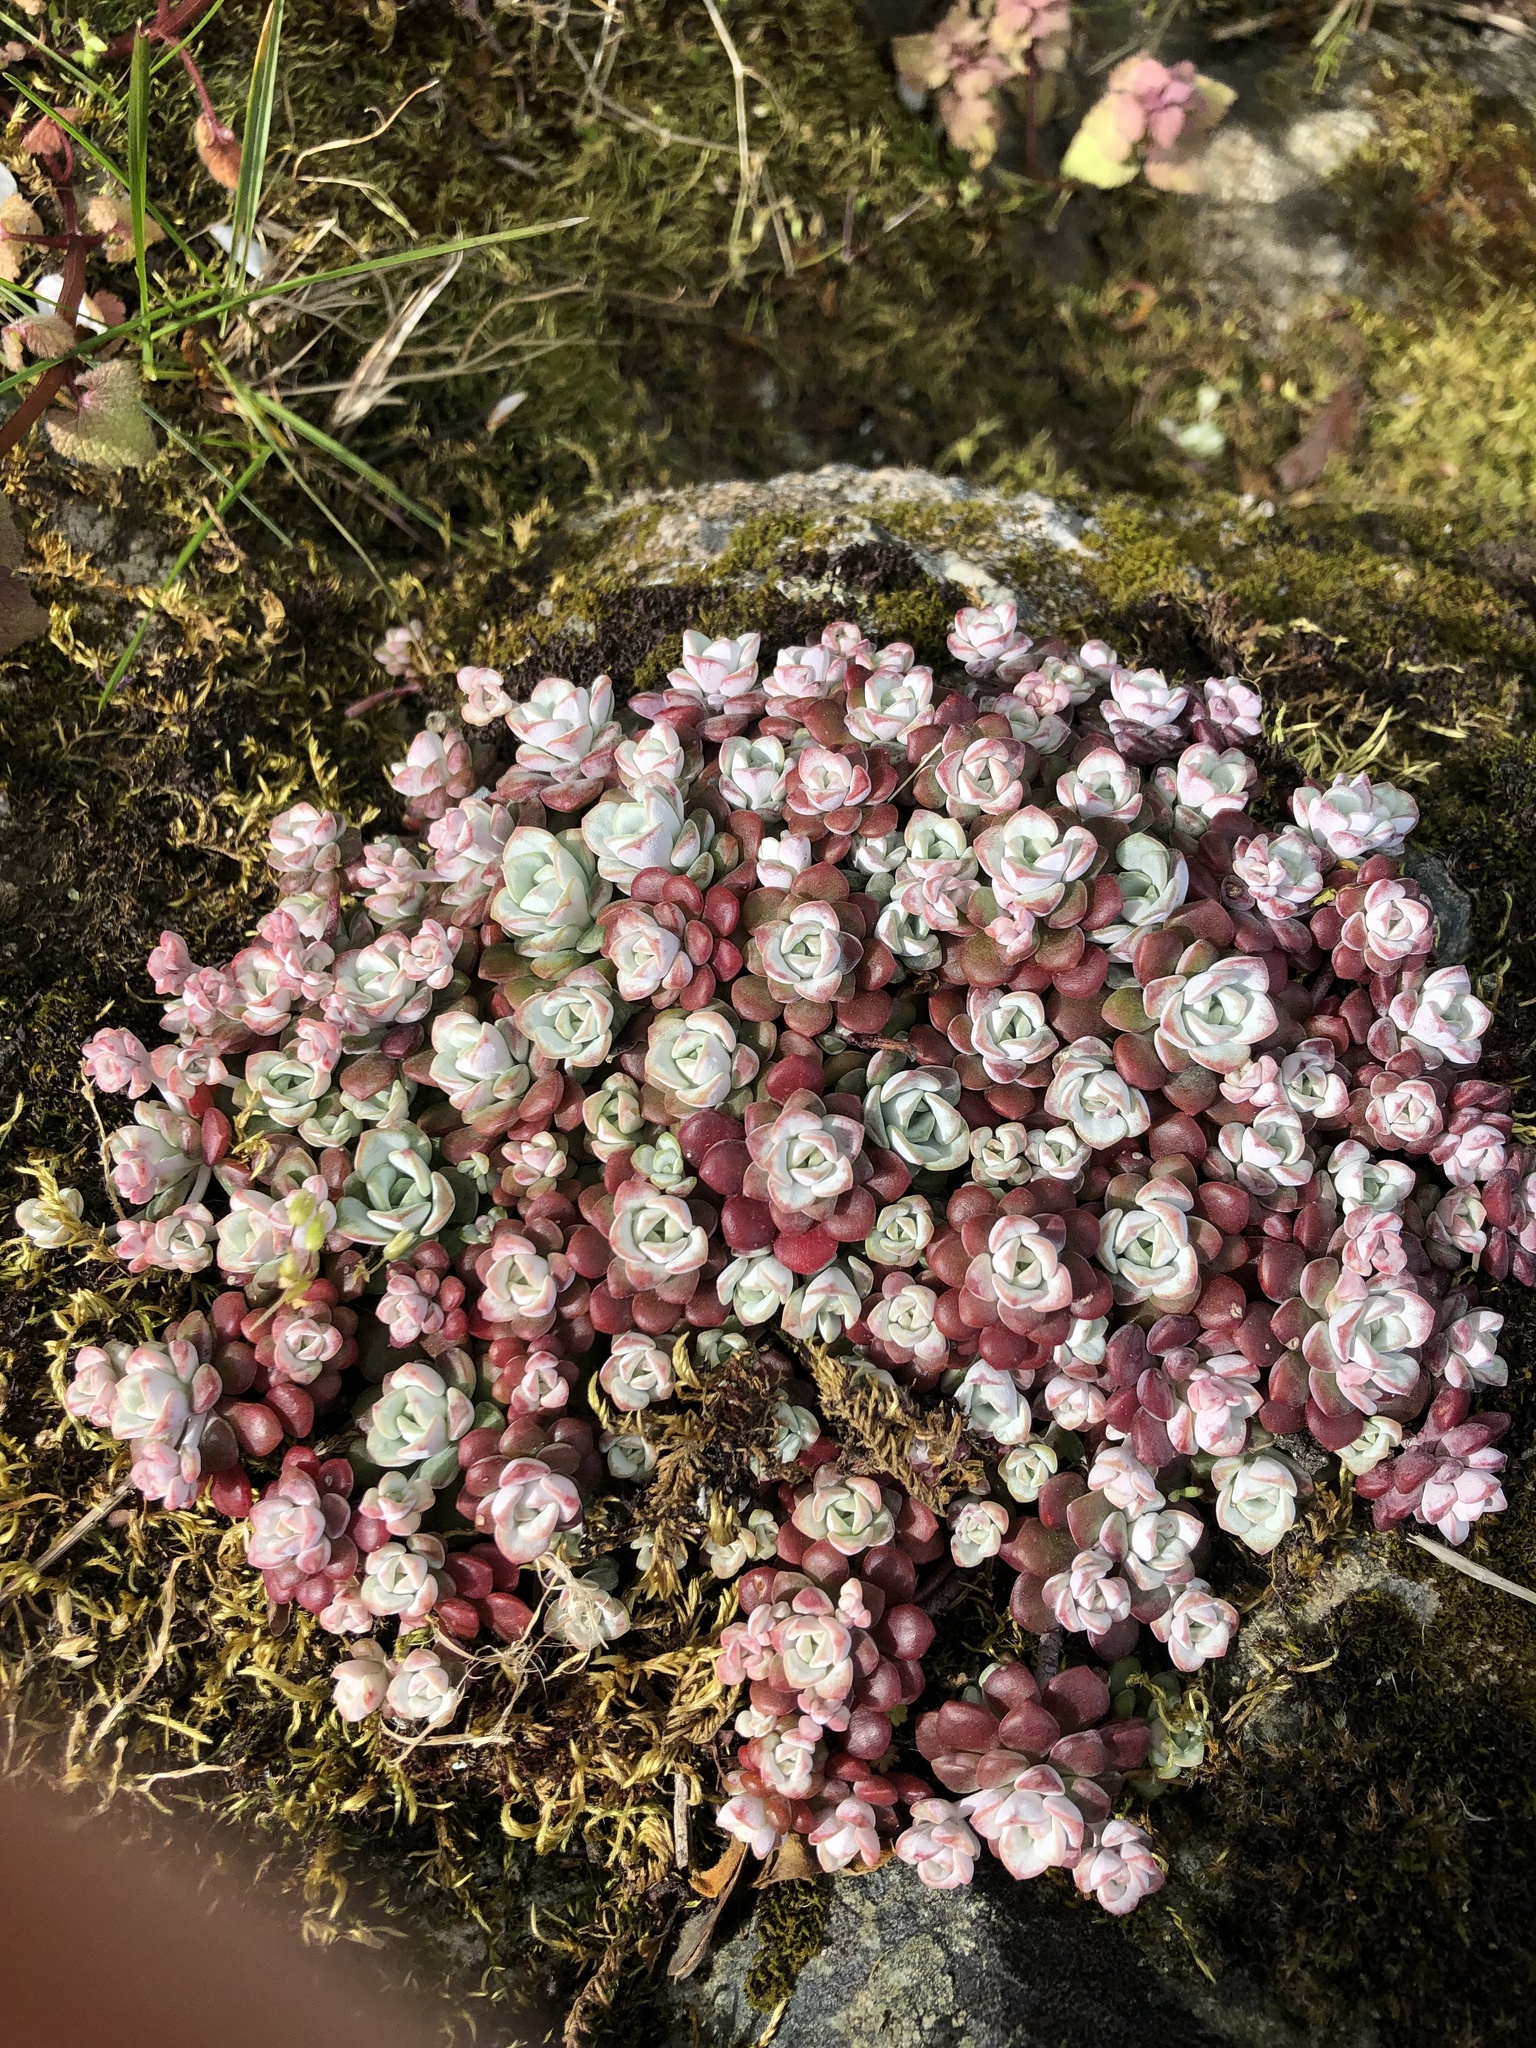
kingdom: Plantae
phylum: Tracheophyta
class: Magnoliopsida
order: Saxifragales
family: Crassulaceae
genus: Sedum
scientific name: Sedum spathulifolium
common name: Colorado stonecrop
